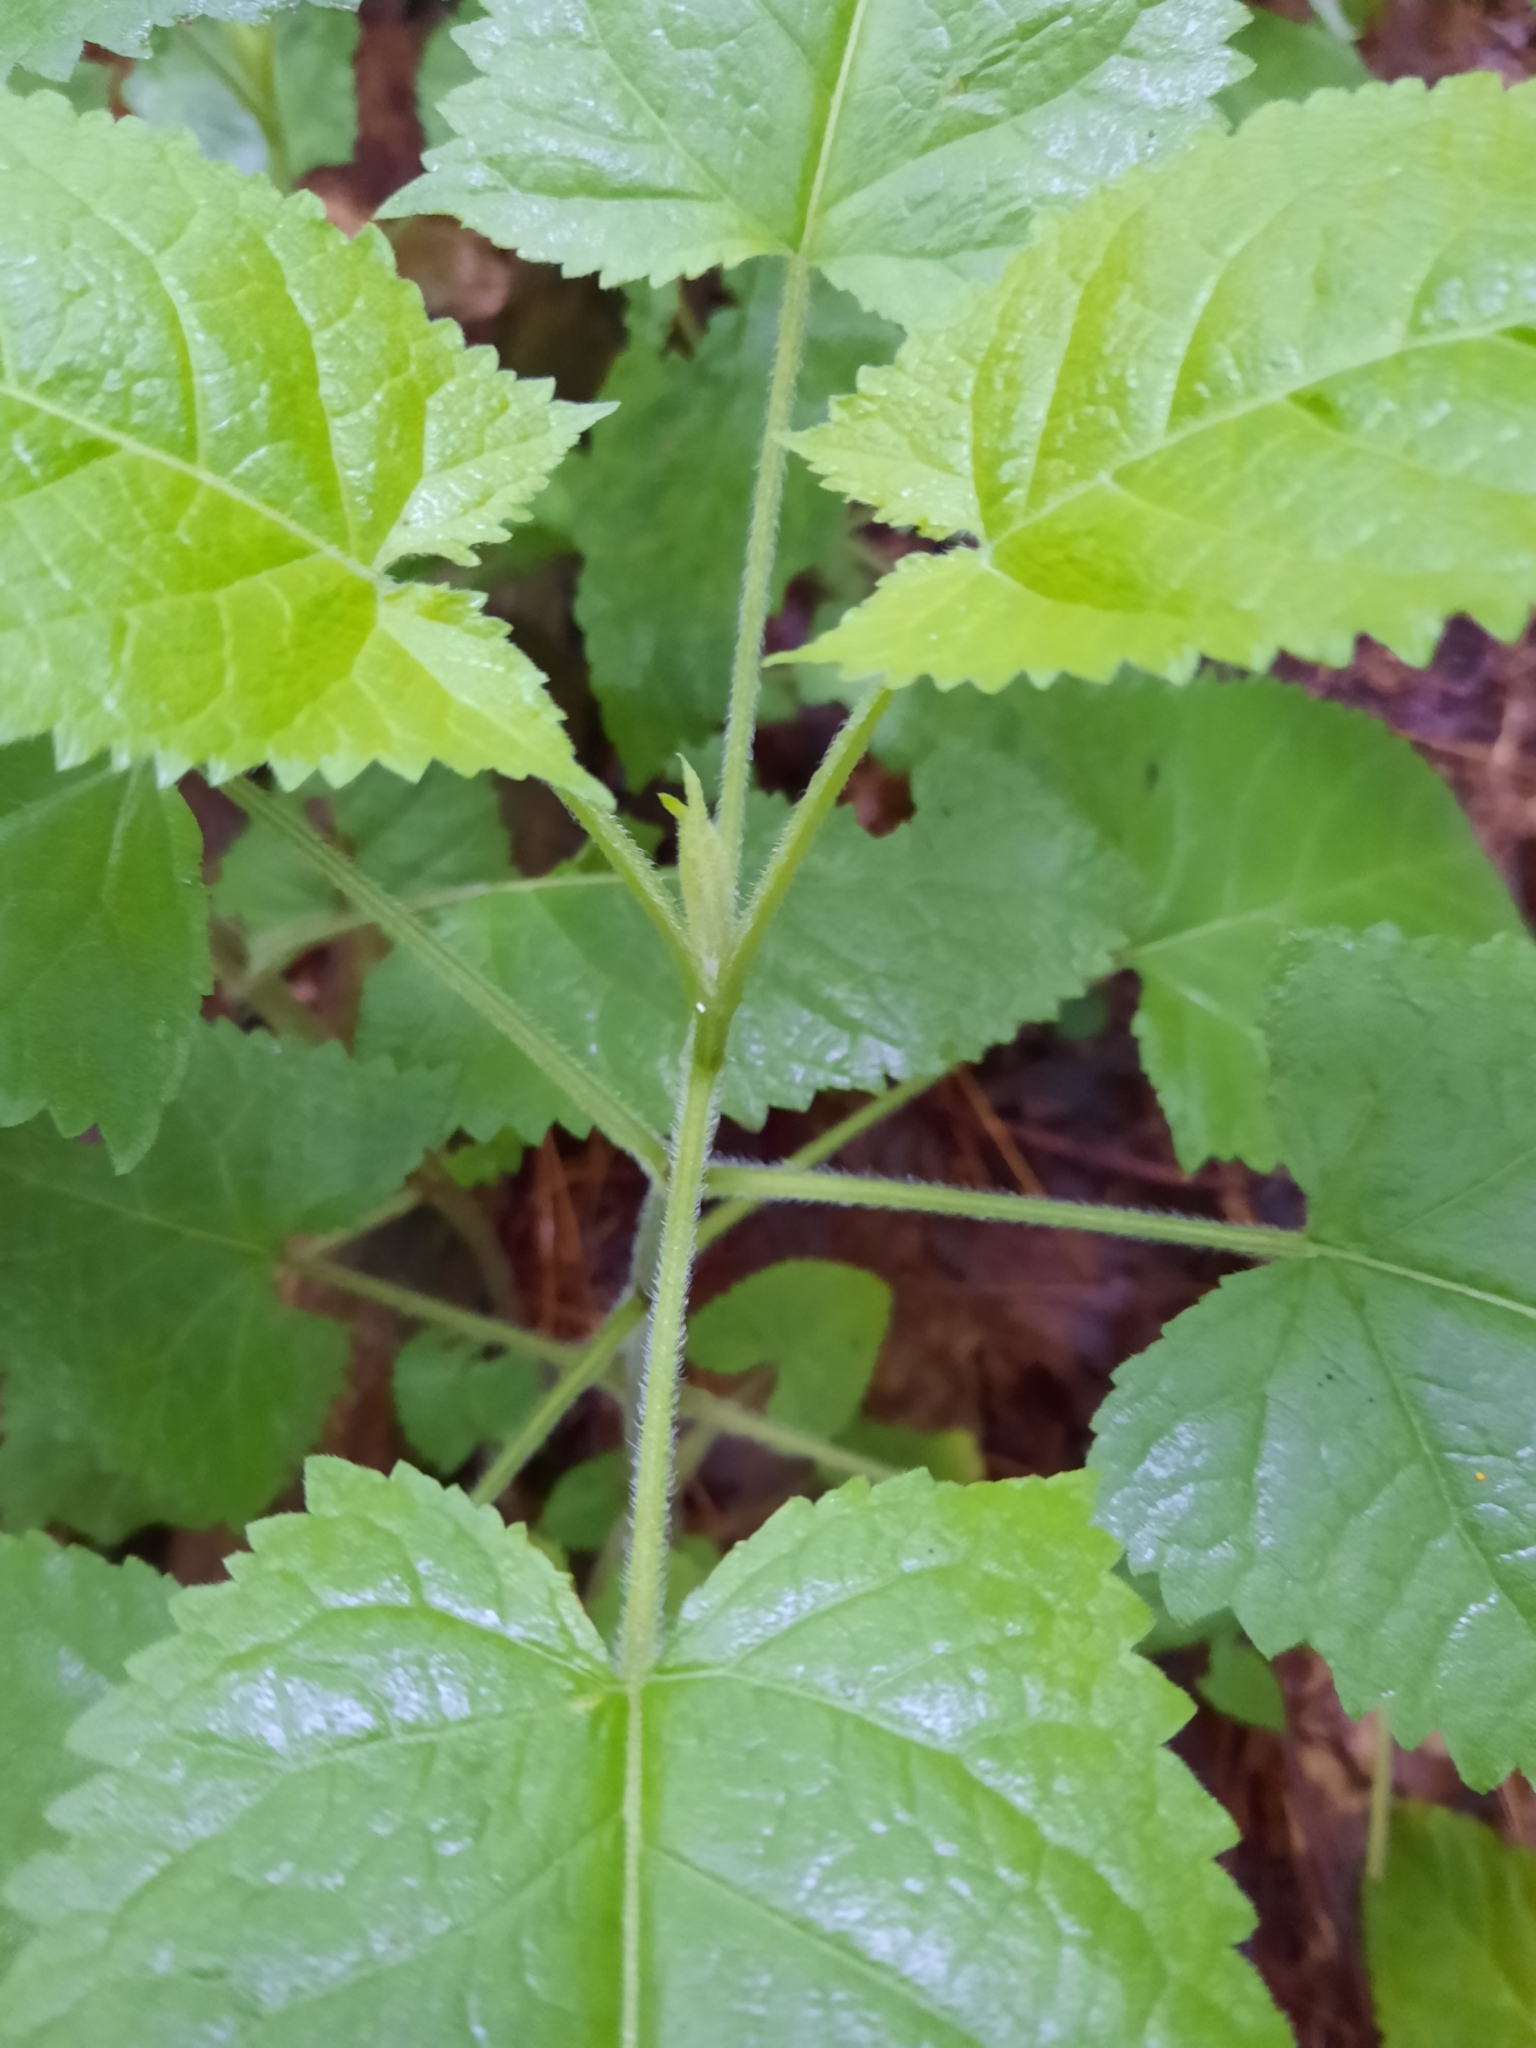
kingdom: Plantae
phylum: Tracheophyta
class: Magnoliopsida
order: Lamiales
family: Lamiaceae
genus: Salvia
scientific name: Salvia glutinosa
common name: Sticky clary
